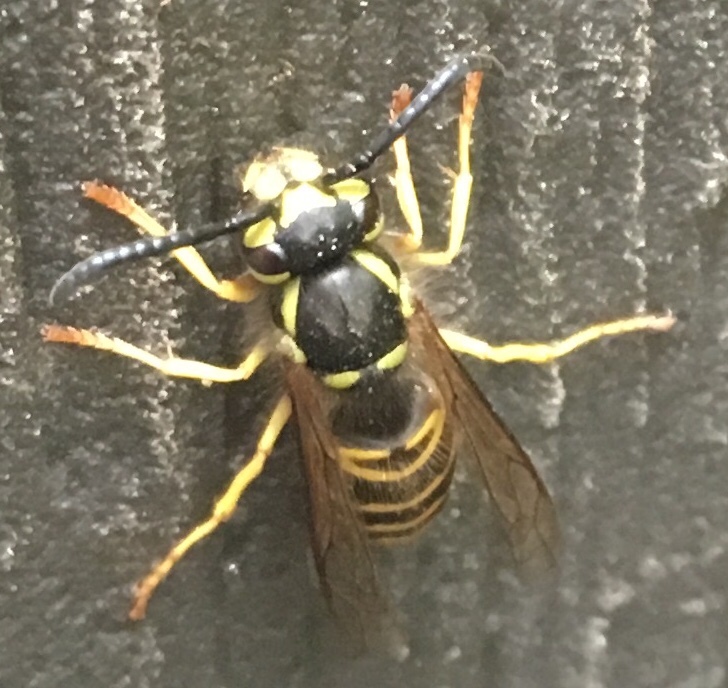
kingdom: Animalia
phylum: Arthropoda
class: Insecta
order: Hymenoptera
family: Vespidae
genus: Vespula
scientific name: Vespula maculifrons
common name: Eastern yellowjacket
